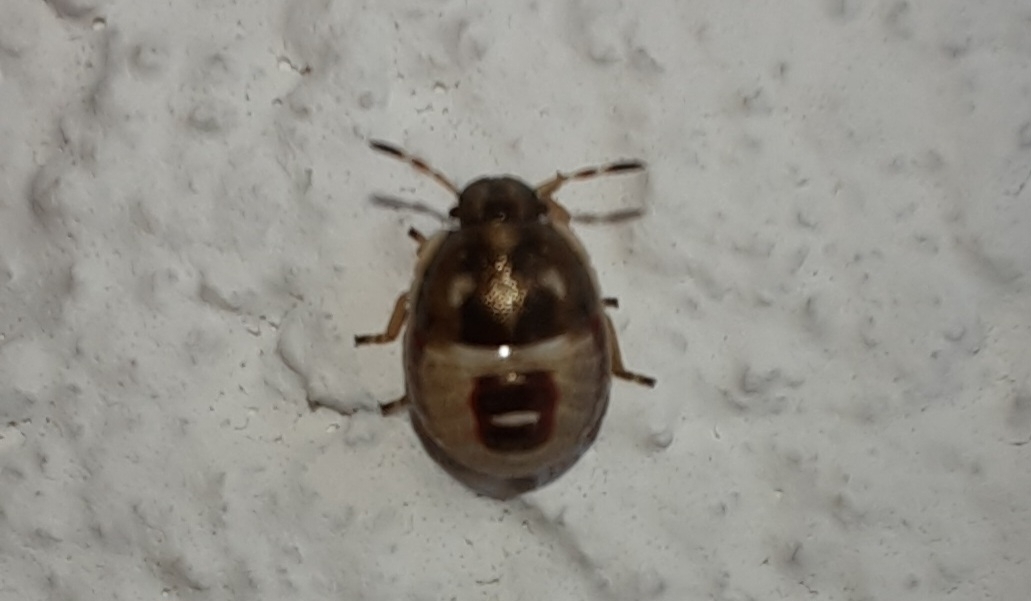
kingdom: Animalia
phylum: Arthropoda
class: Insecta
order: Hemiptera
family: Pentatomidae
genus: Holcostethus
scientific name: Holcostethus sphacelatus
